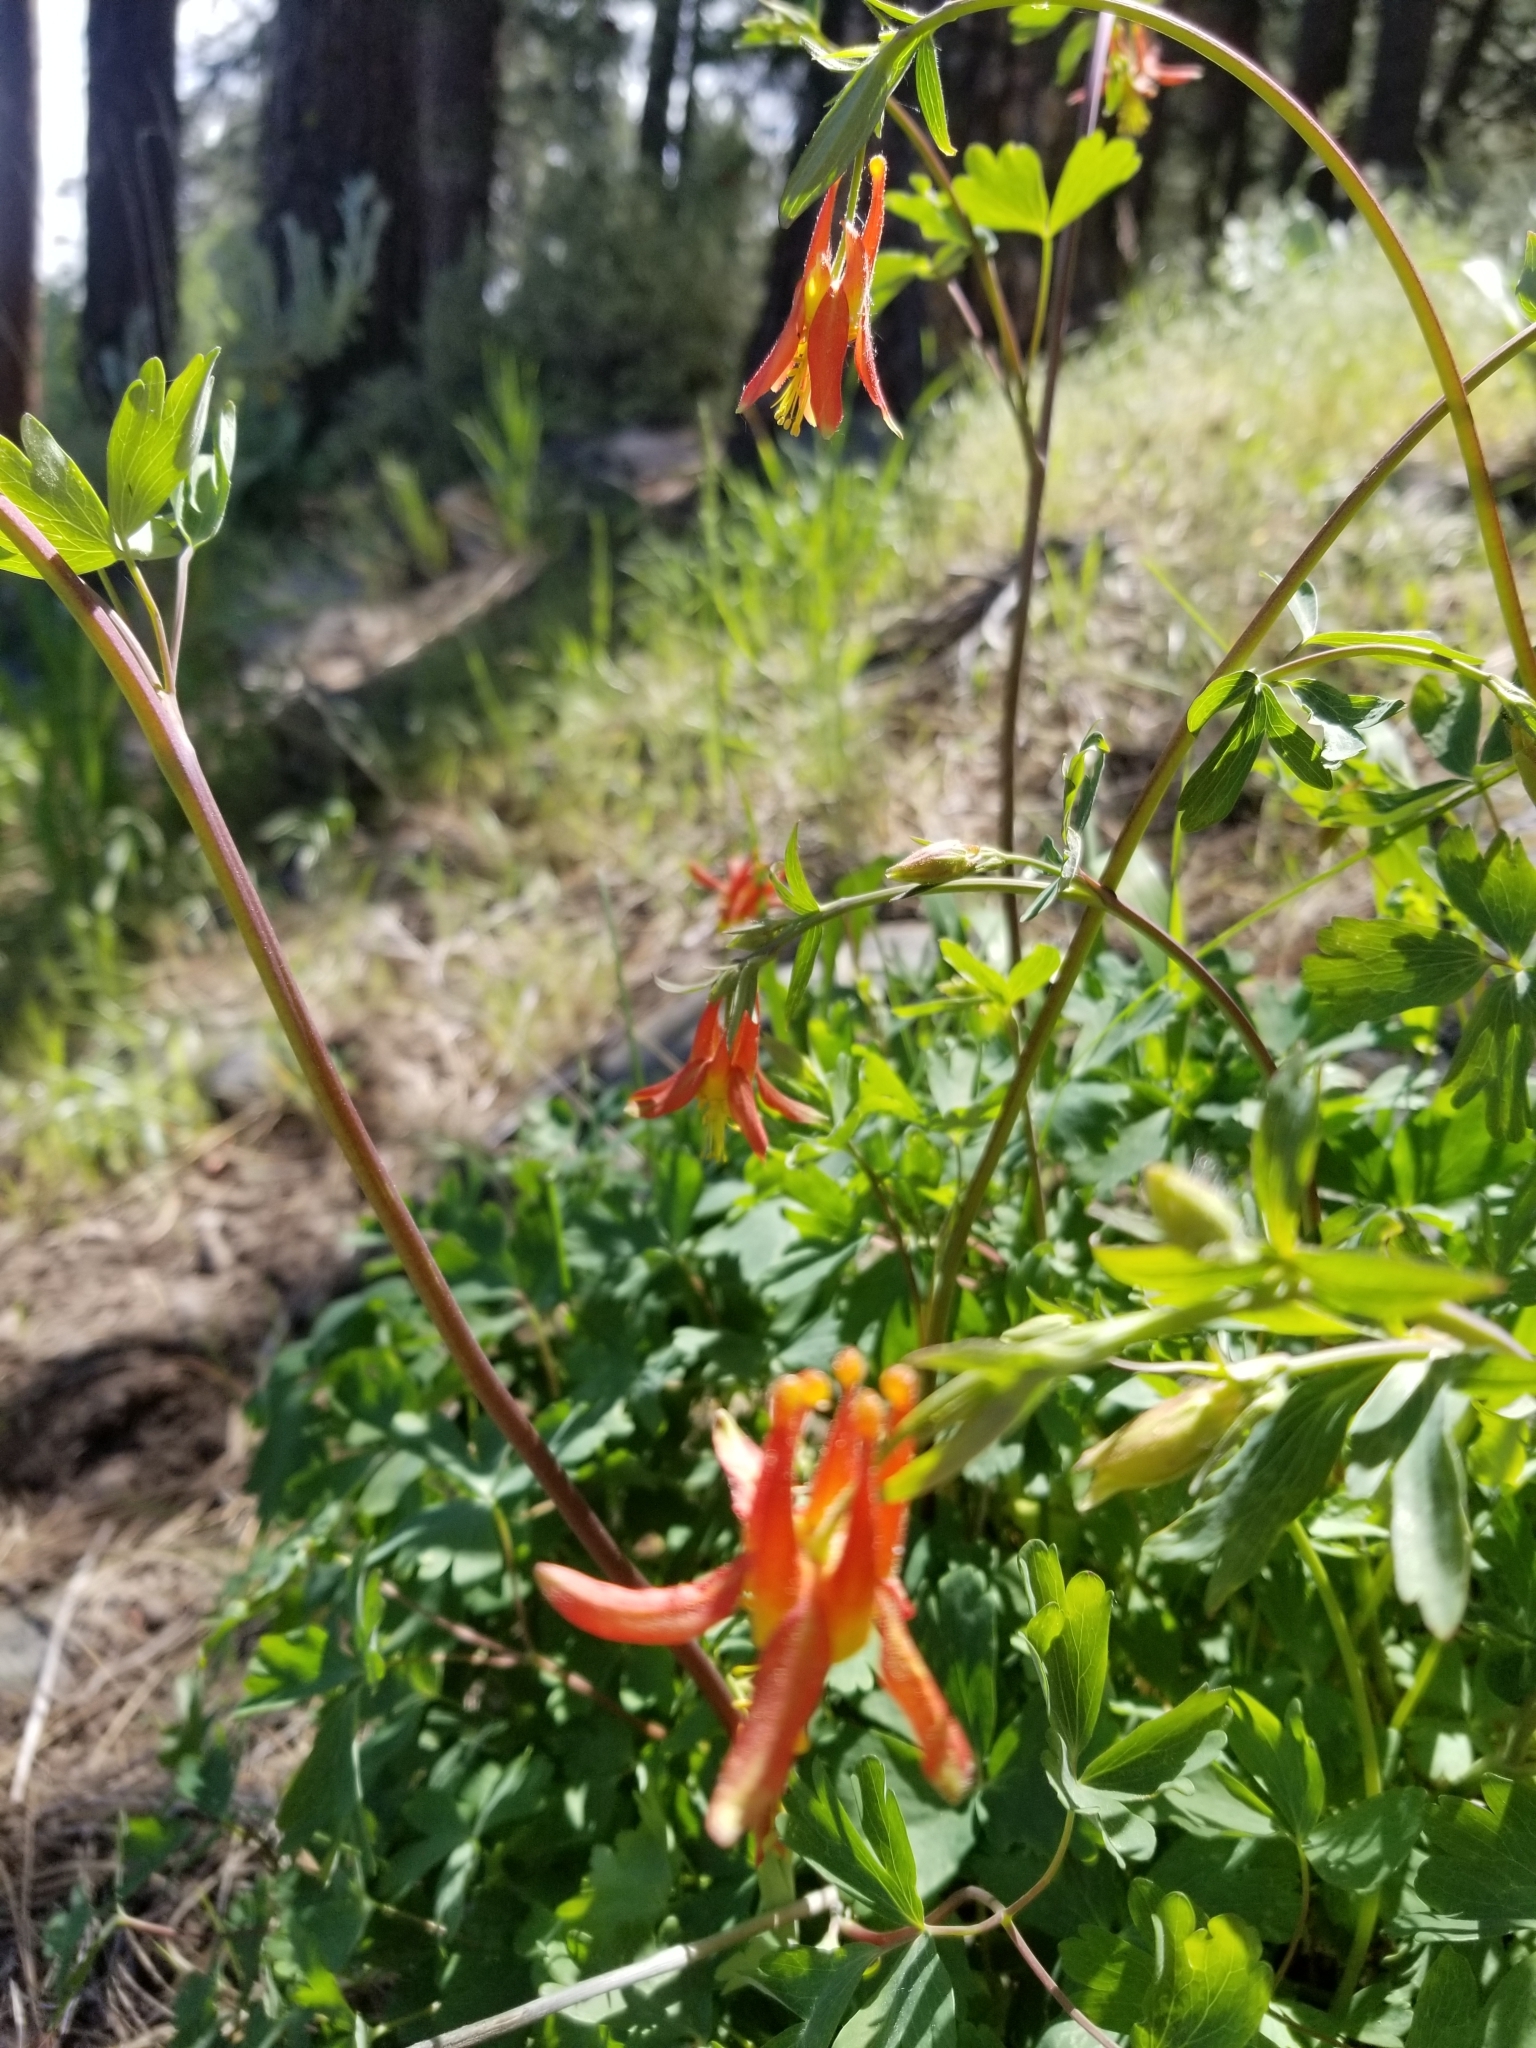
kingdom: Plantae
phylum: Tracheophyta
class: Magnoliopsida
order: Ranunculales
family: Ranunculaceae
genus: Aquilegia
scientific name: Aquilegia formosa
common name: Sitka columbine
